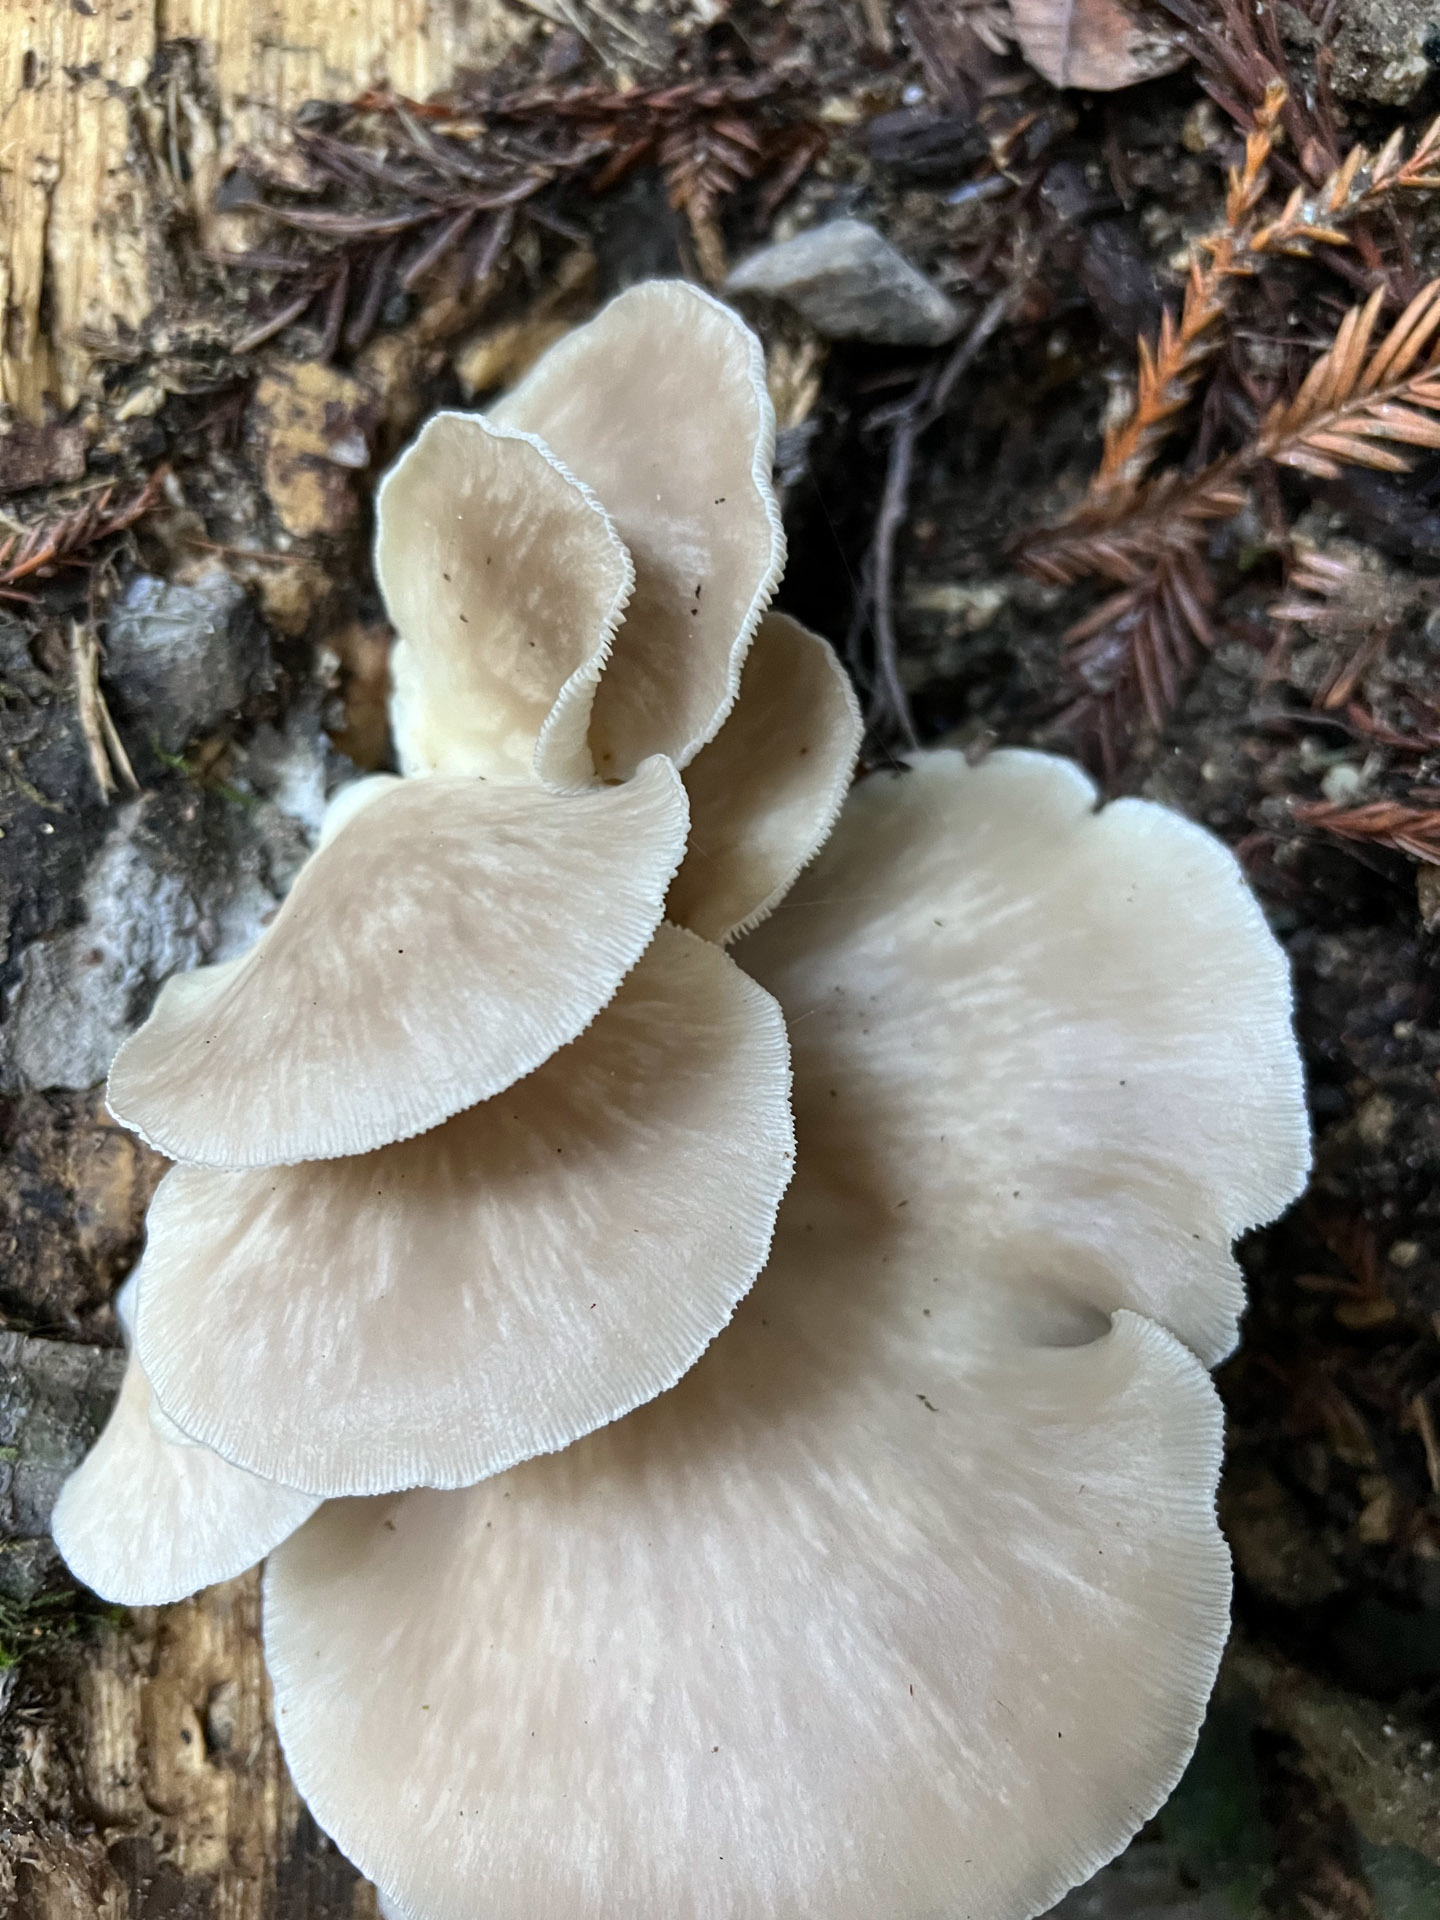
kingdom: Fungi
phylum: Basidiomycota
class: Agaricomycetes
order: Agaricales
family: Pleurotaceae
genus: Pleurotus
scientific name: Pleurotus ostreatus
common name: Oyster mushroom
